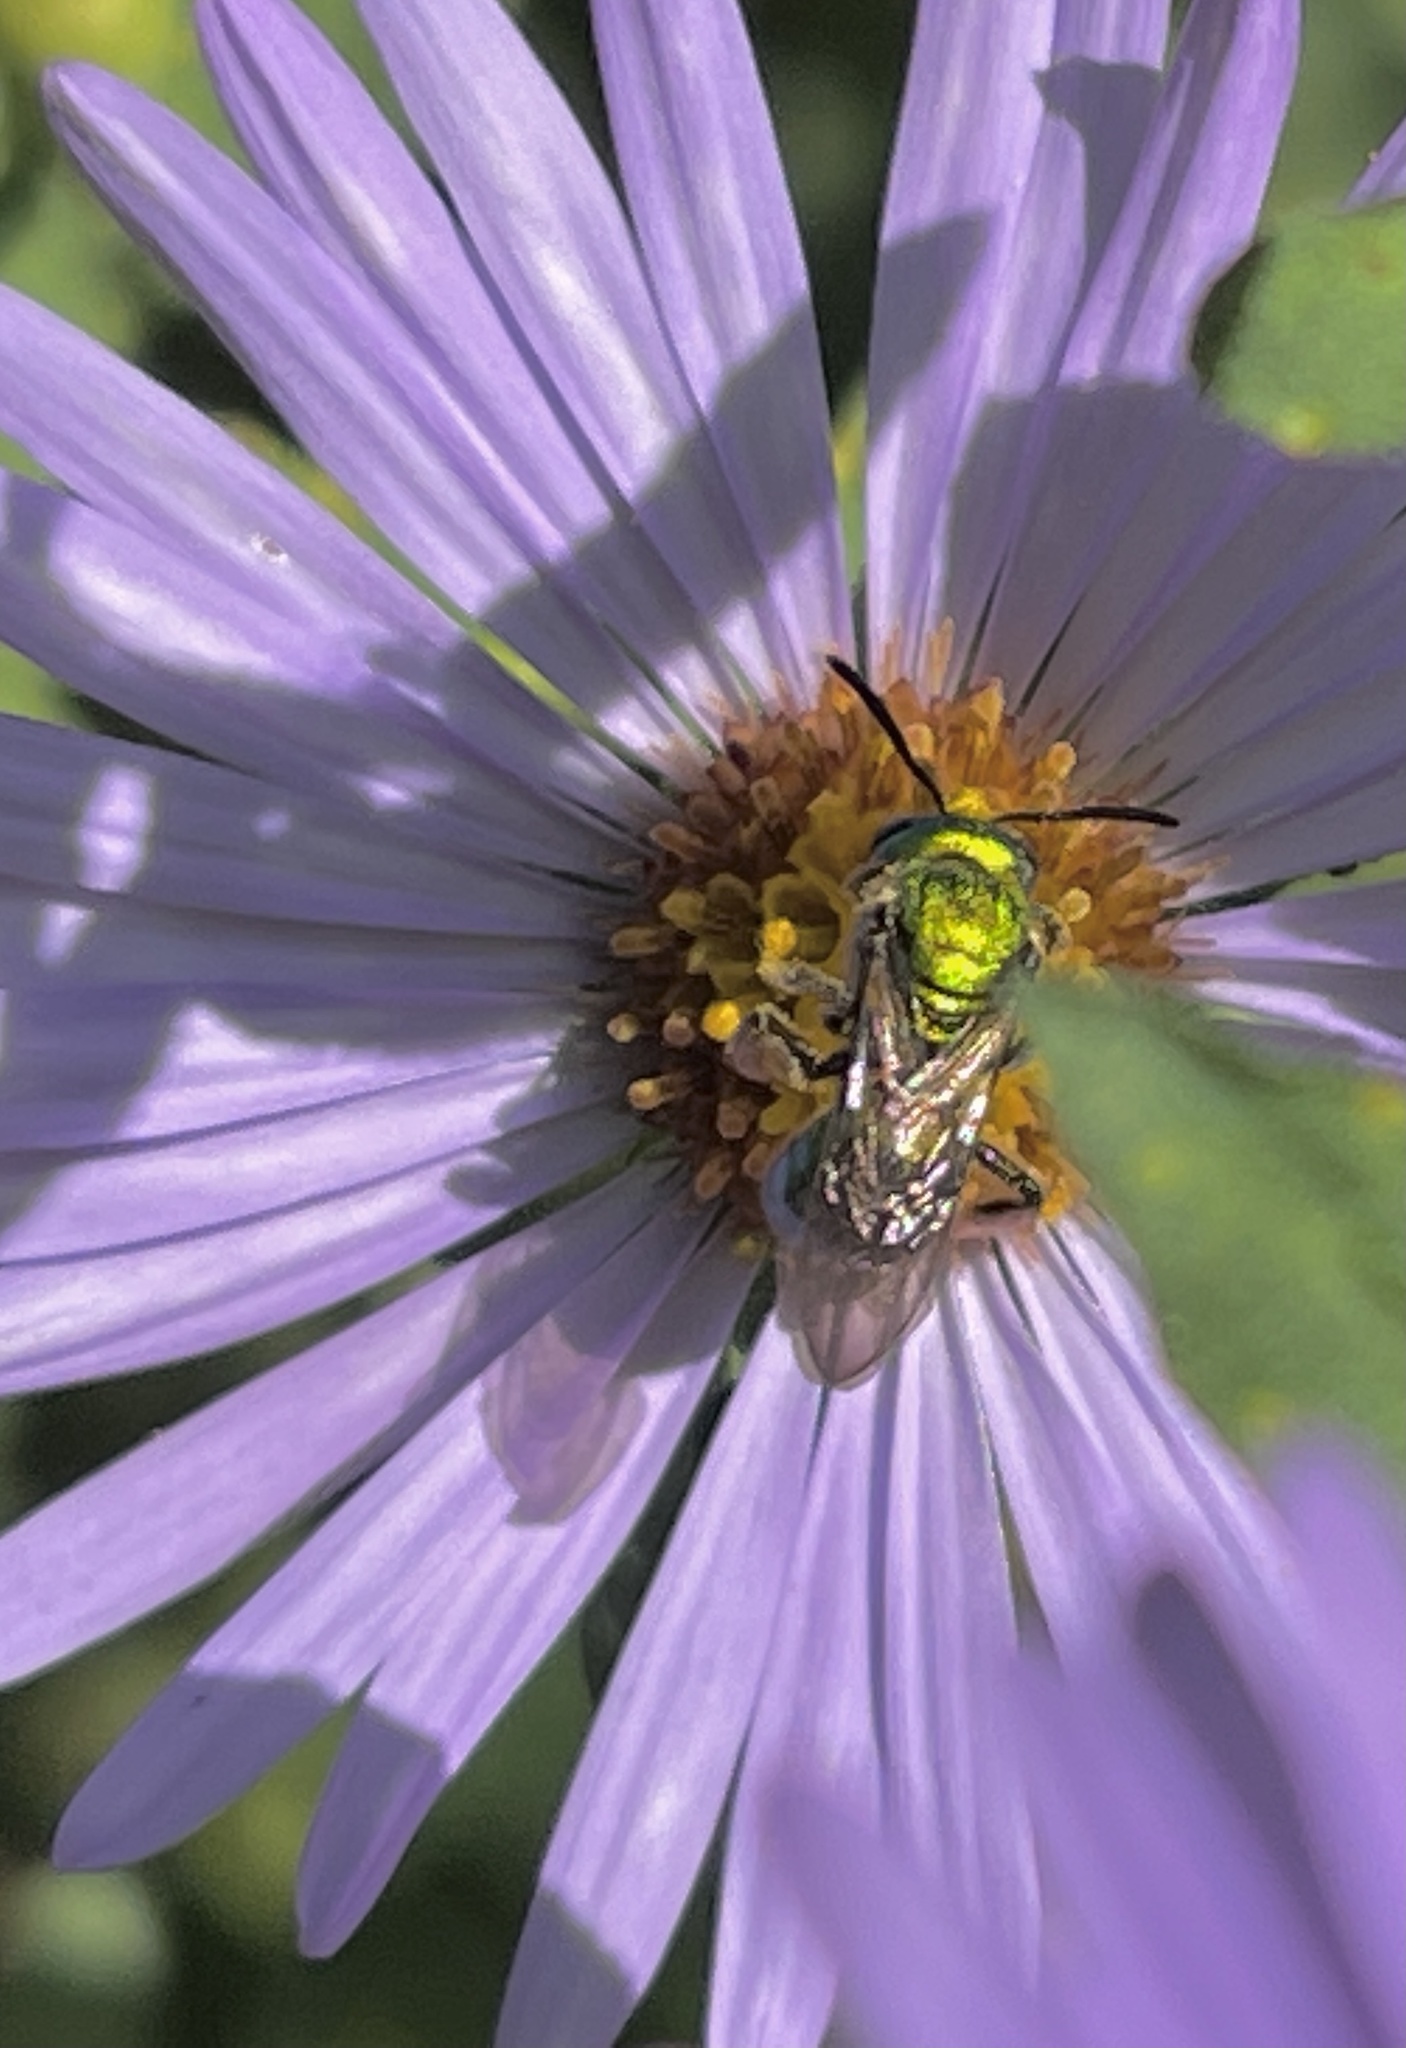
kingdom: Animalia
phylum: Arthropoda
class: Insecta
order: Hymenoptera
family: Halictidae
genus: Augochlora
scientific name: Augochlora pura
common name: Pure green sweat bee
